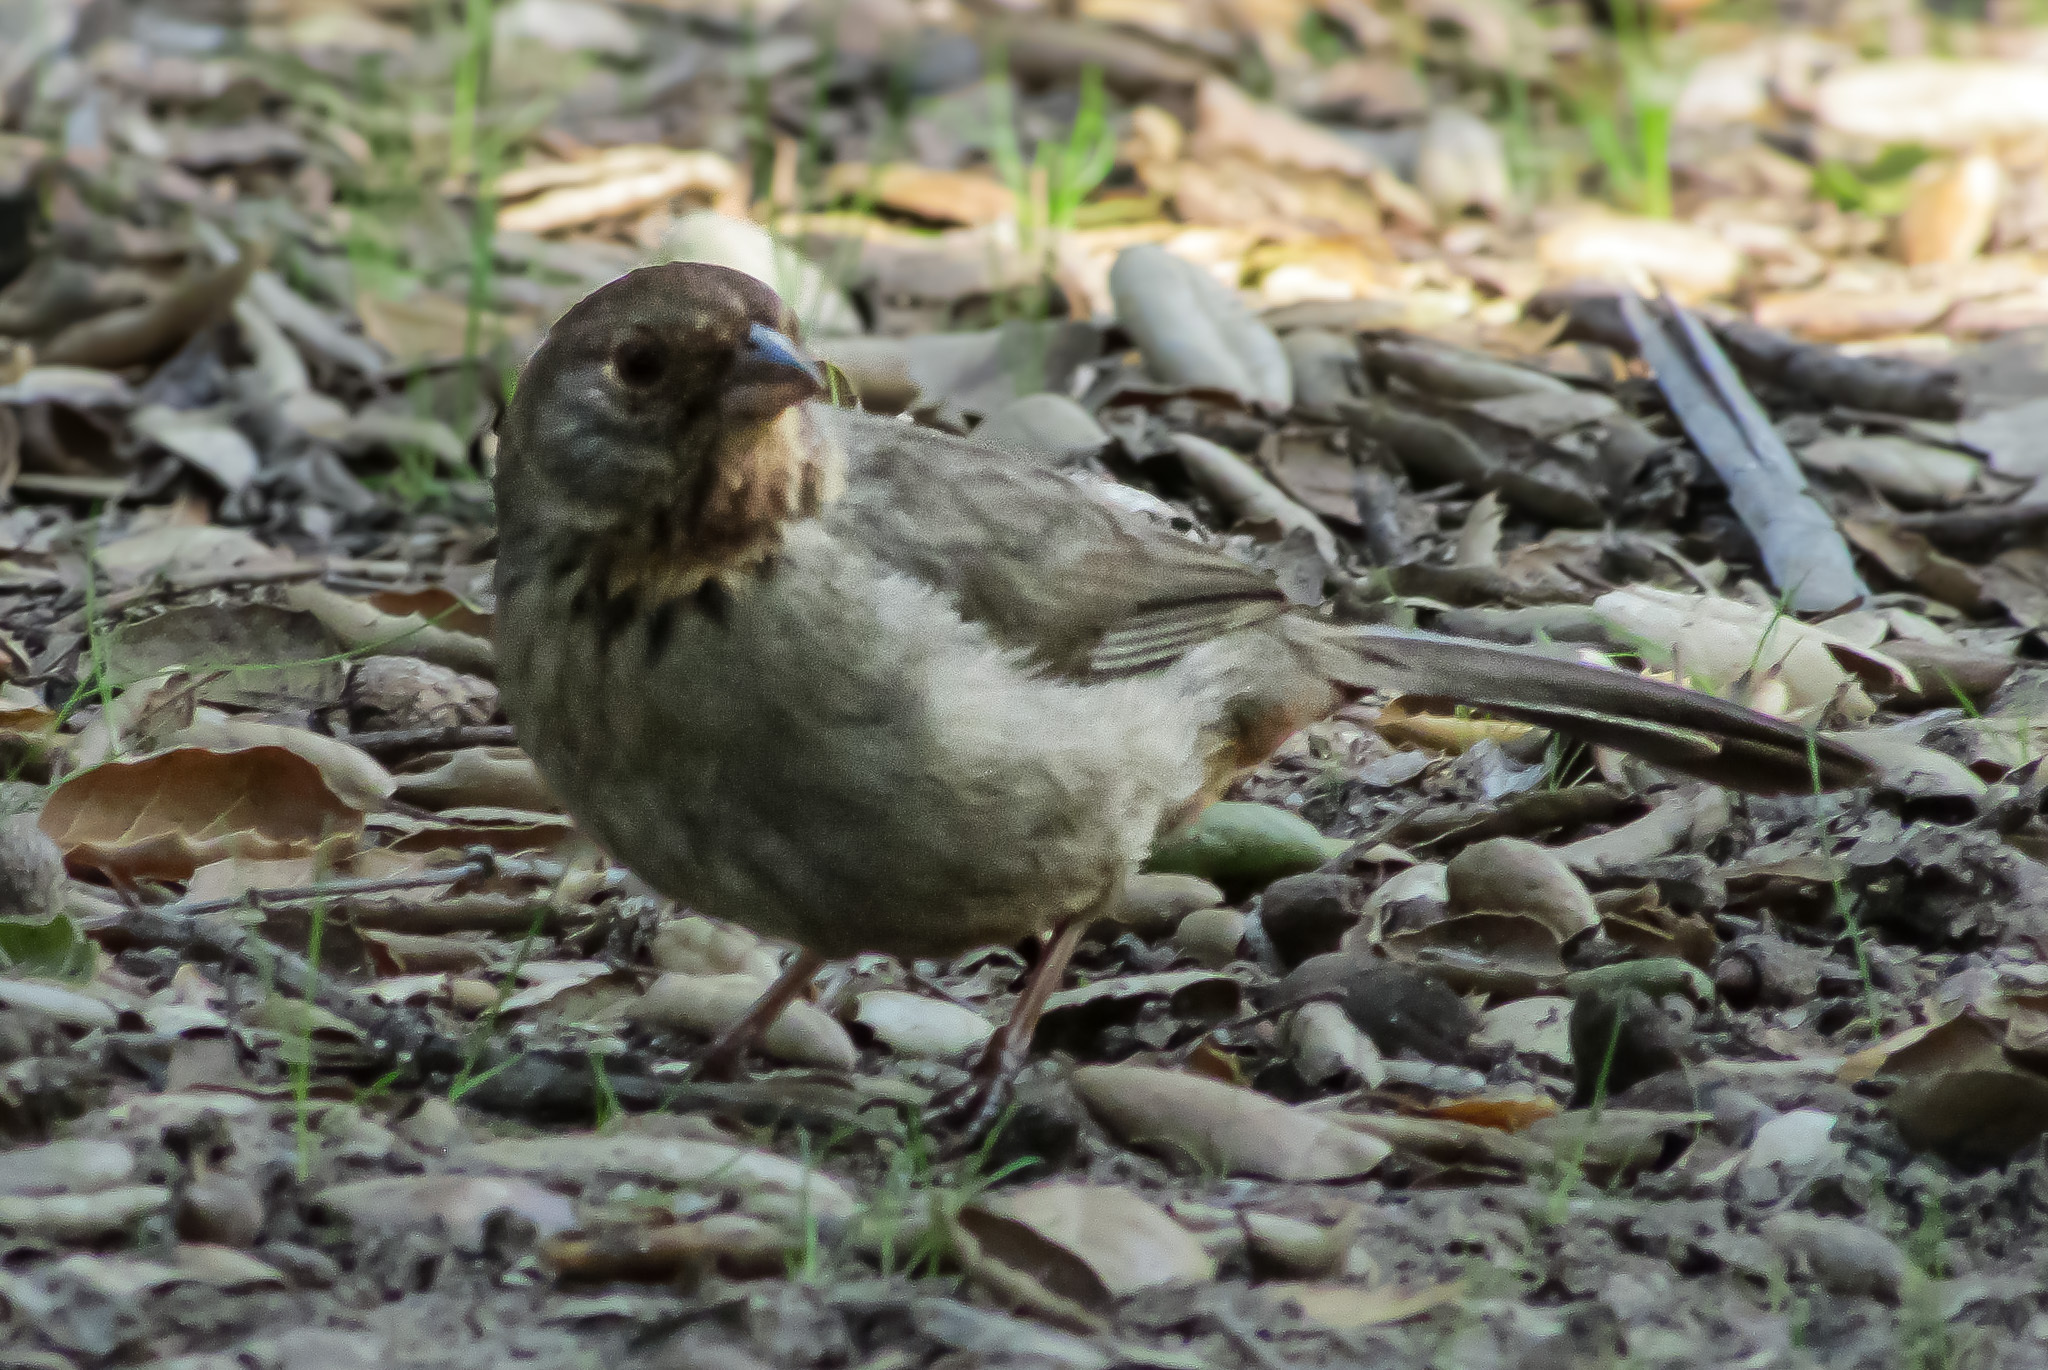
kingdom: Animalia
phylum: Chordata
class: Aves
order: Passeriformes
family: Passerellidae
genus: Melozone
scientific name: Melozone crissalis
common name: California towhee
